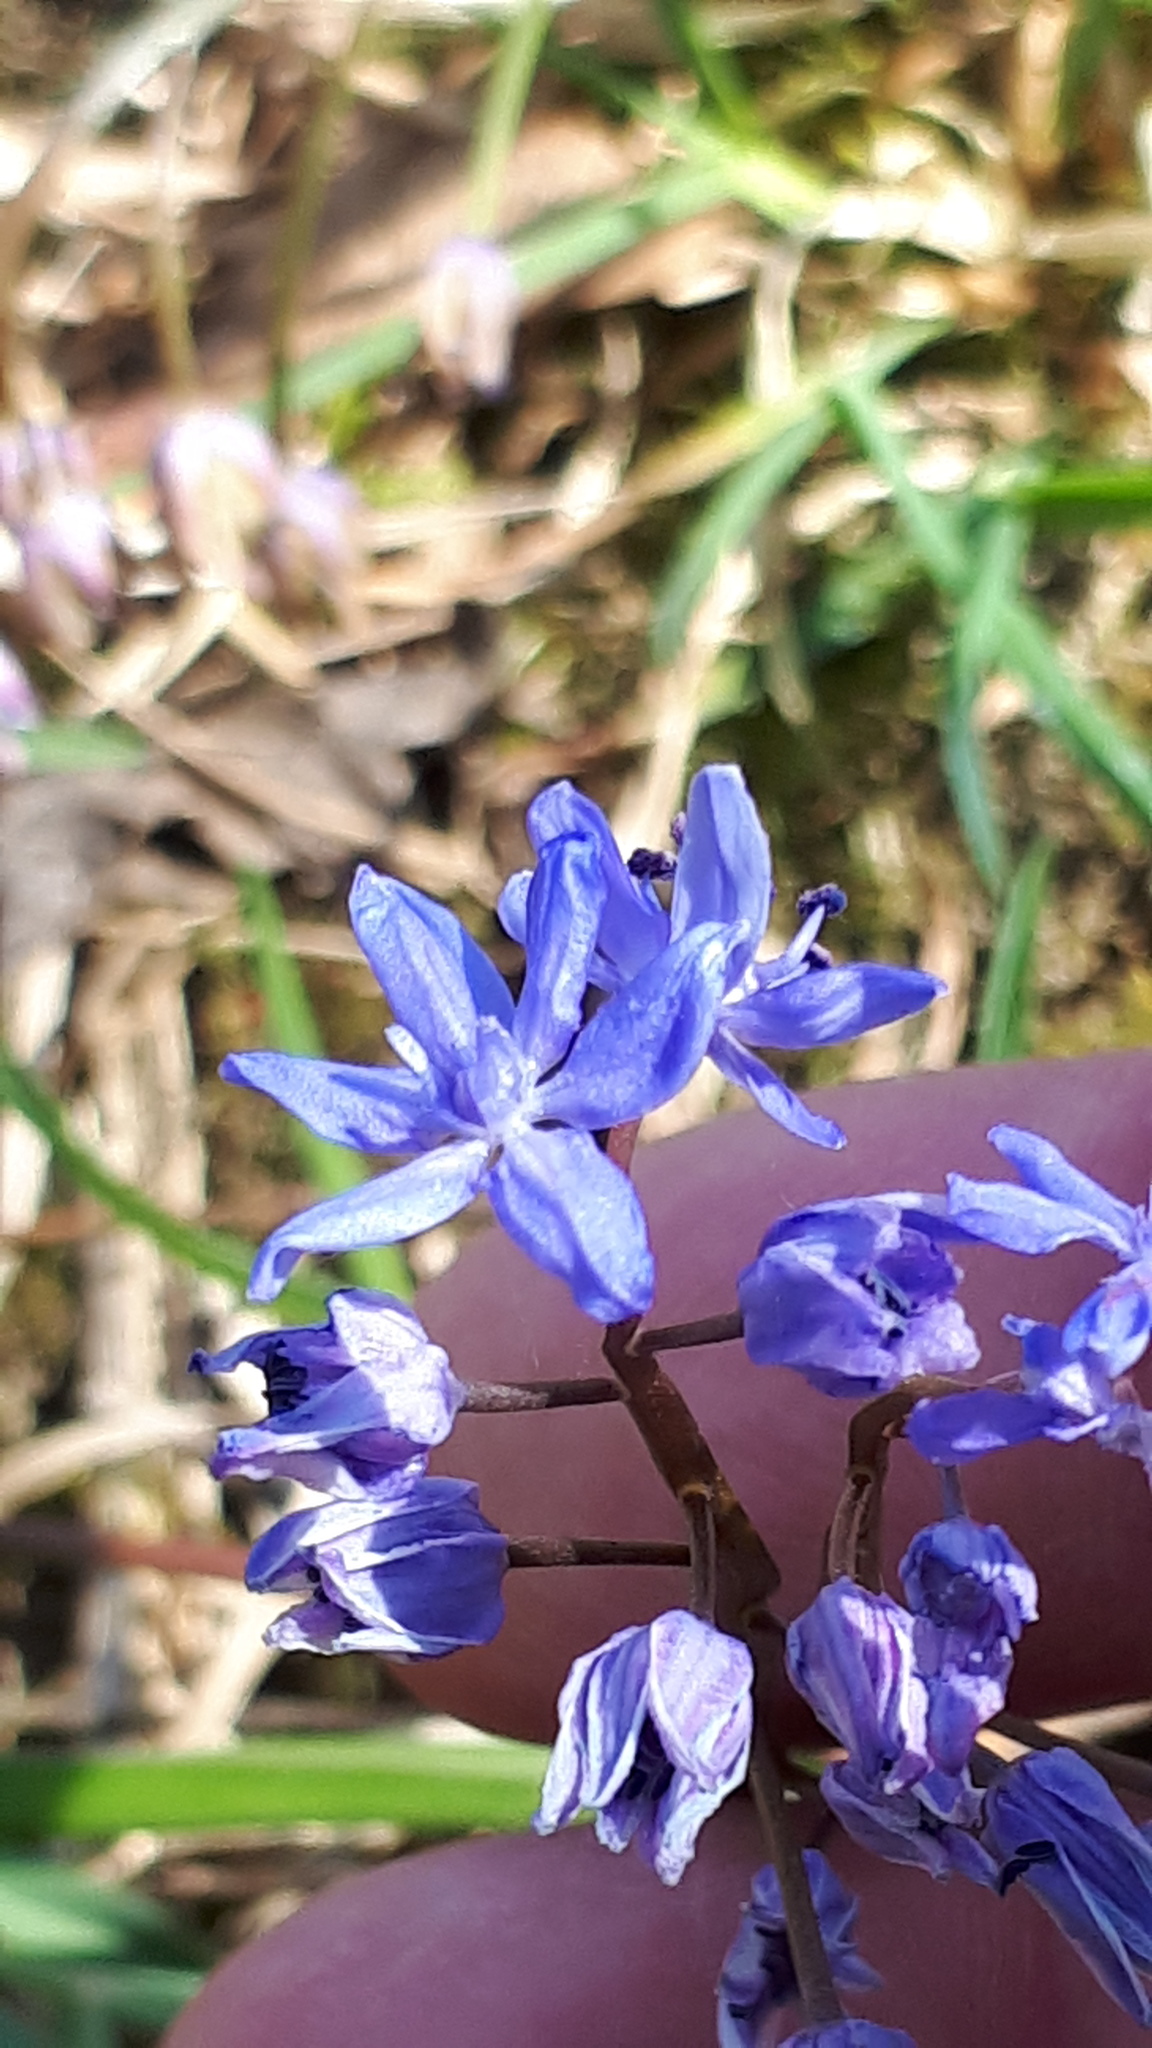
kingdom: Plantae
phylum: Tracheophyta
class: Liliopsida
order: Asparagales
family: Asparagaceae
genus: Scilla
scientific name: Scilla bifolia
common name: Alpine squill
